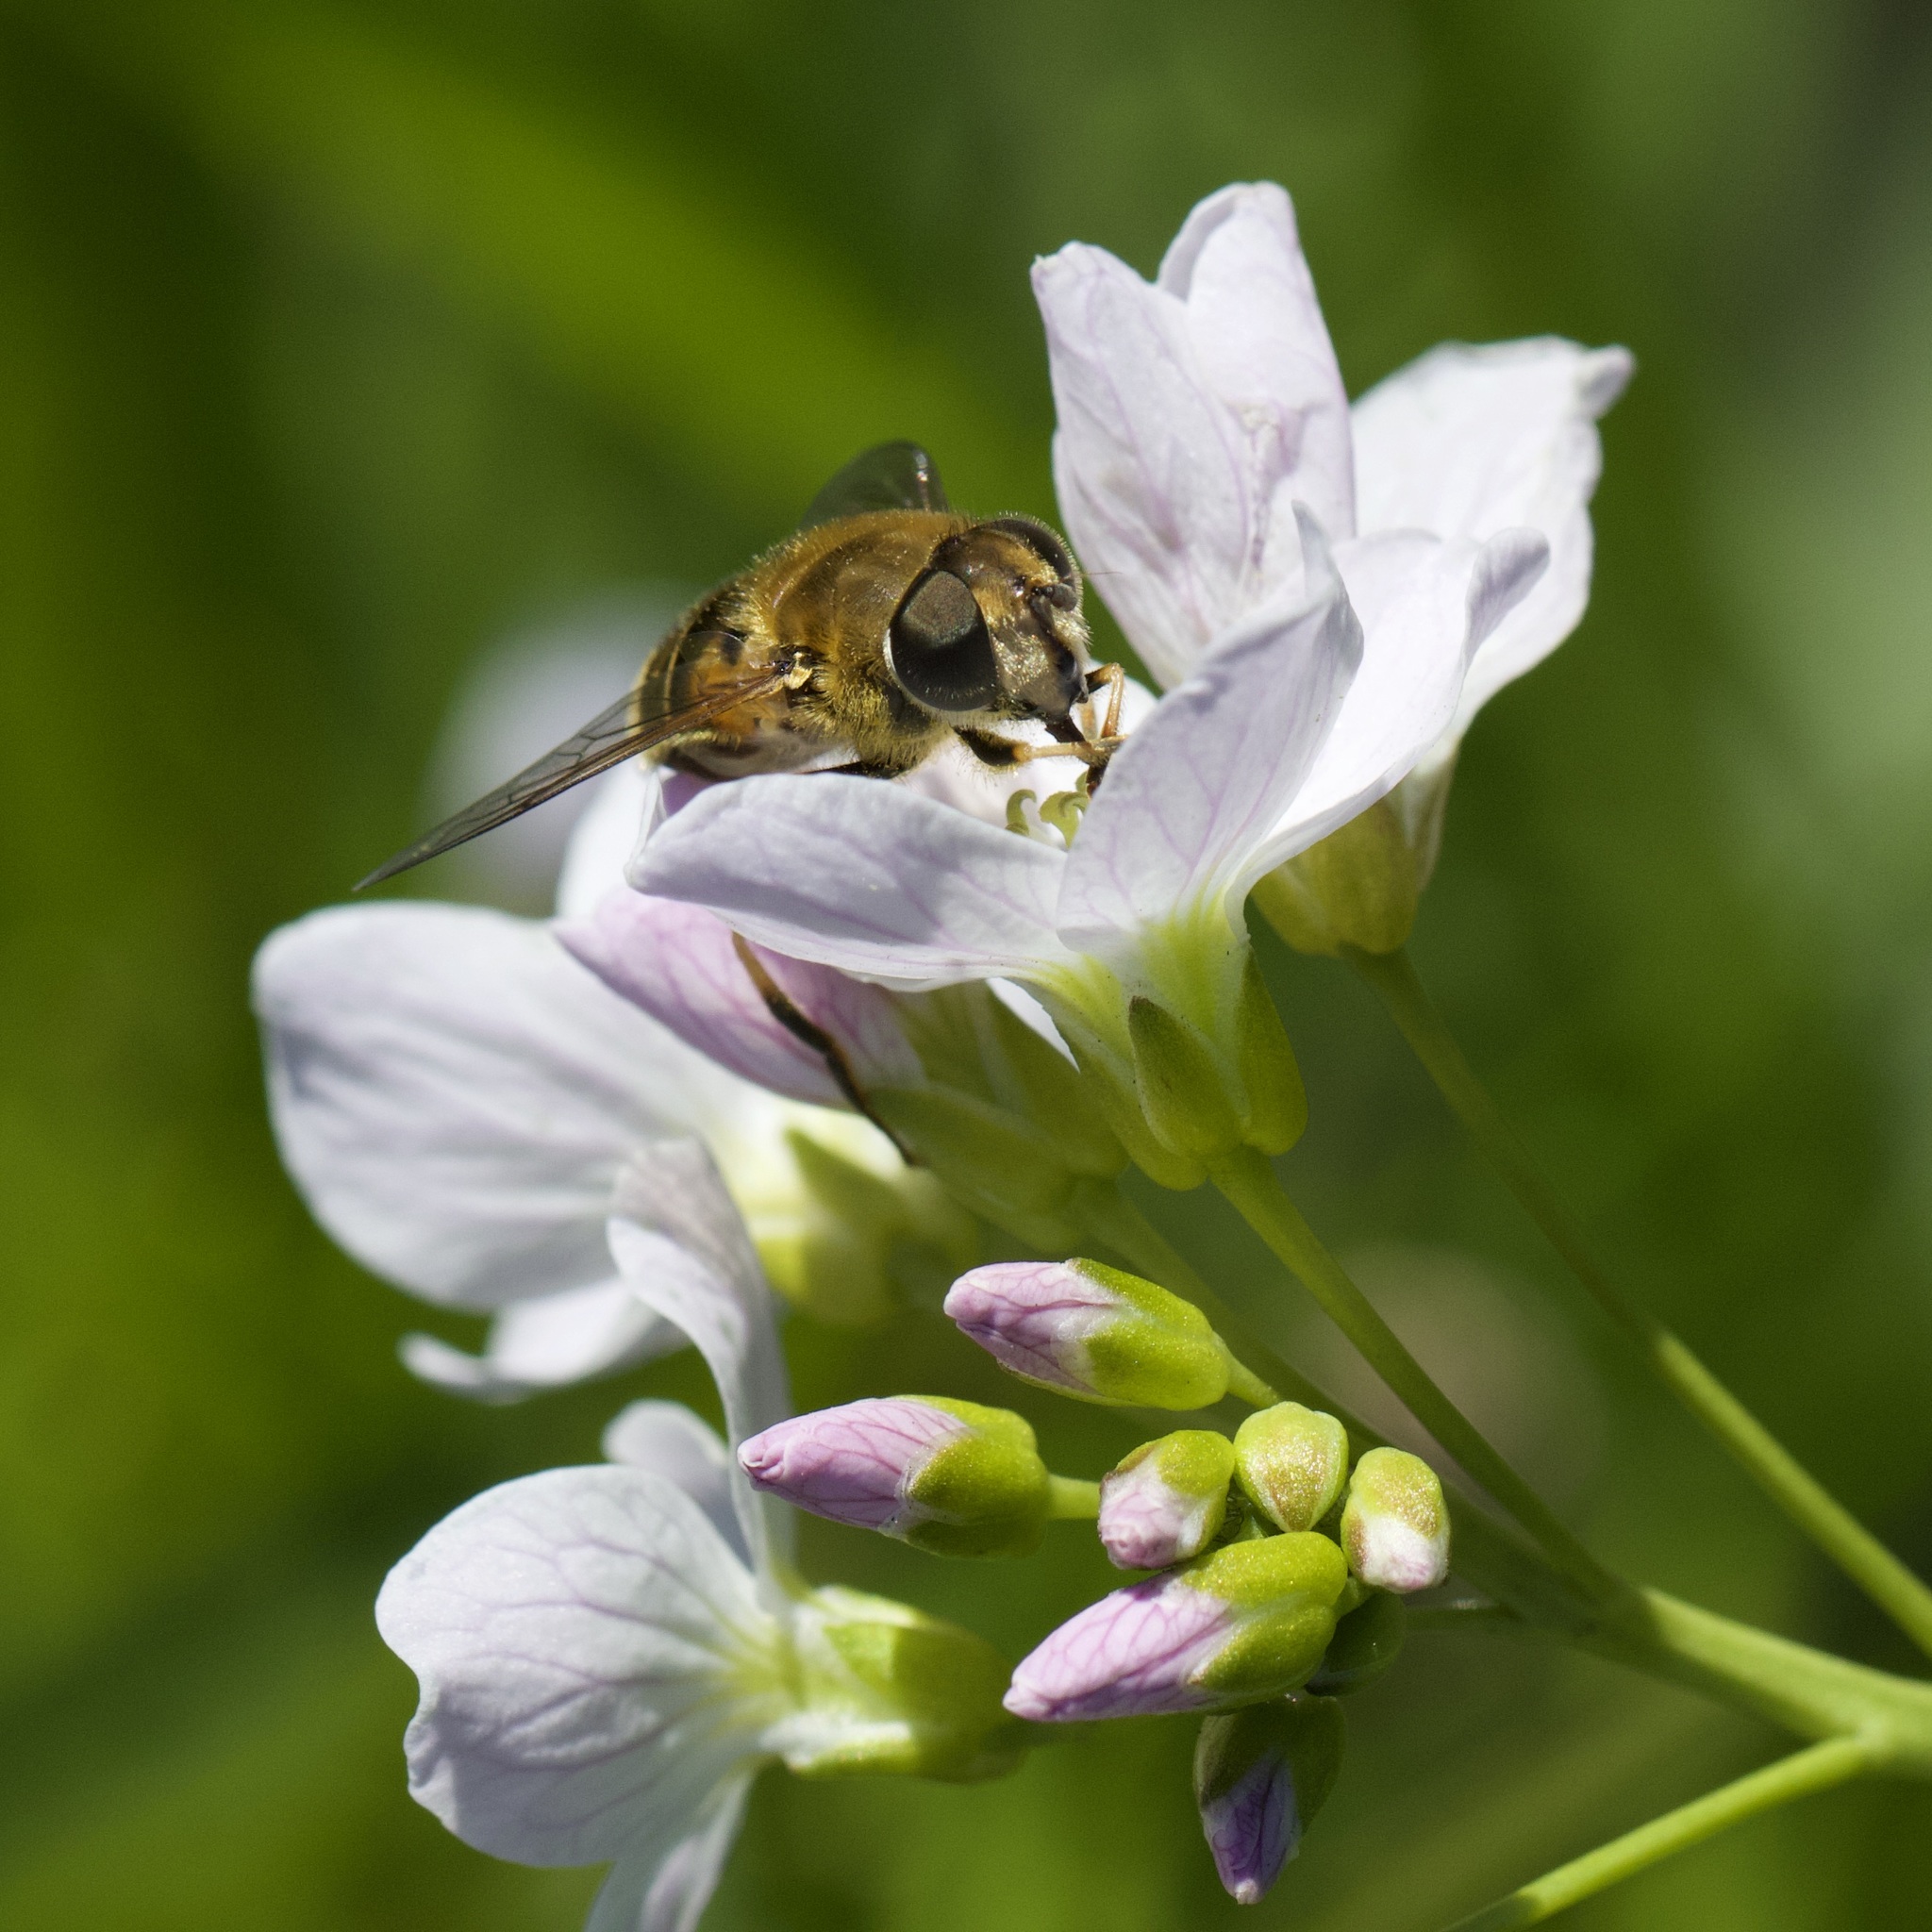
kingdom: Animalia
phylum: Arthropoda
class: Insecta
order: Diptera
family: Syrphidae
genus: Eristalis
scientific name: Eristalis nemorum
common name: Orange-spined drone fly
